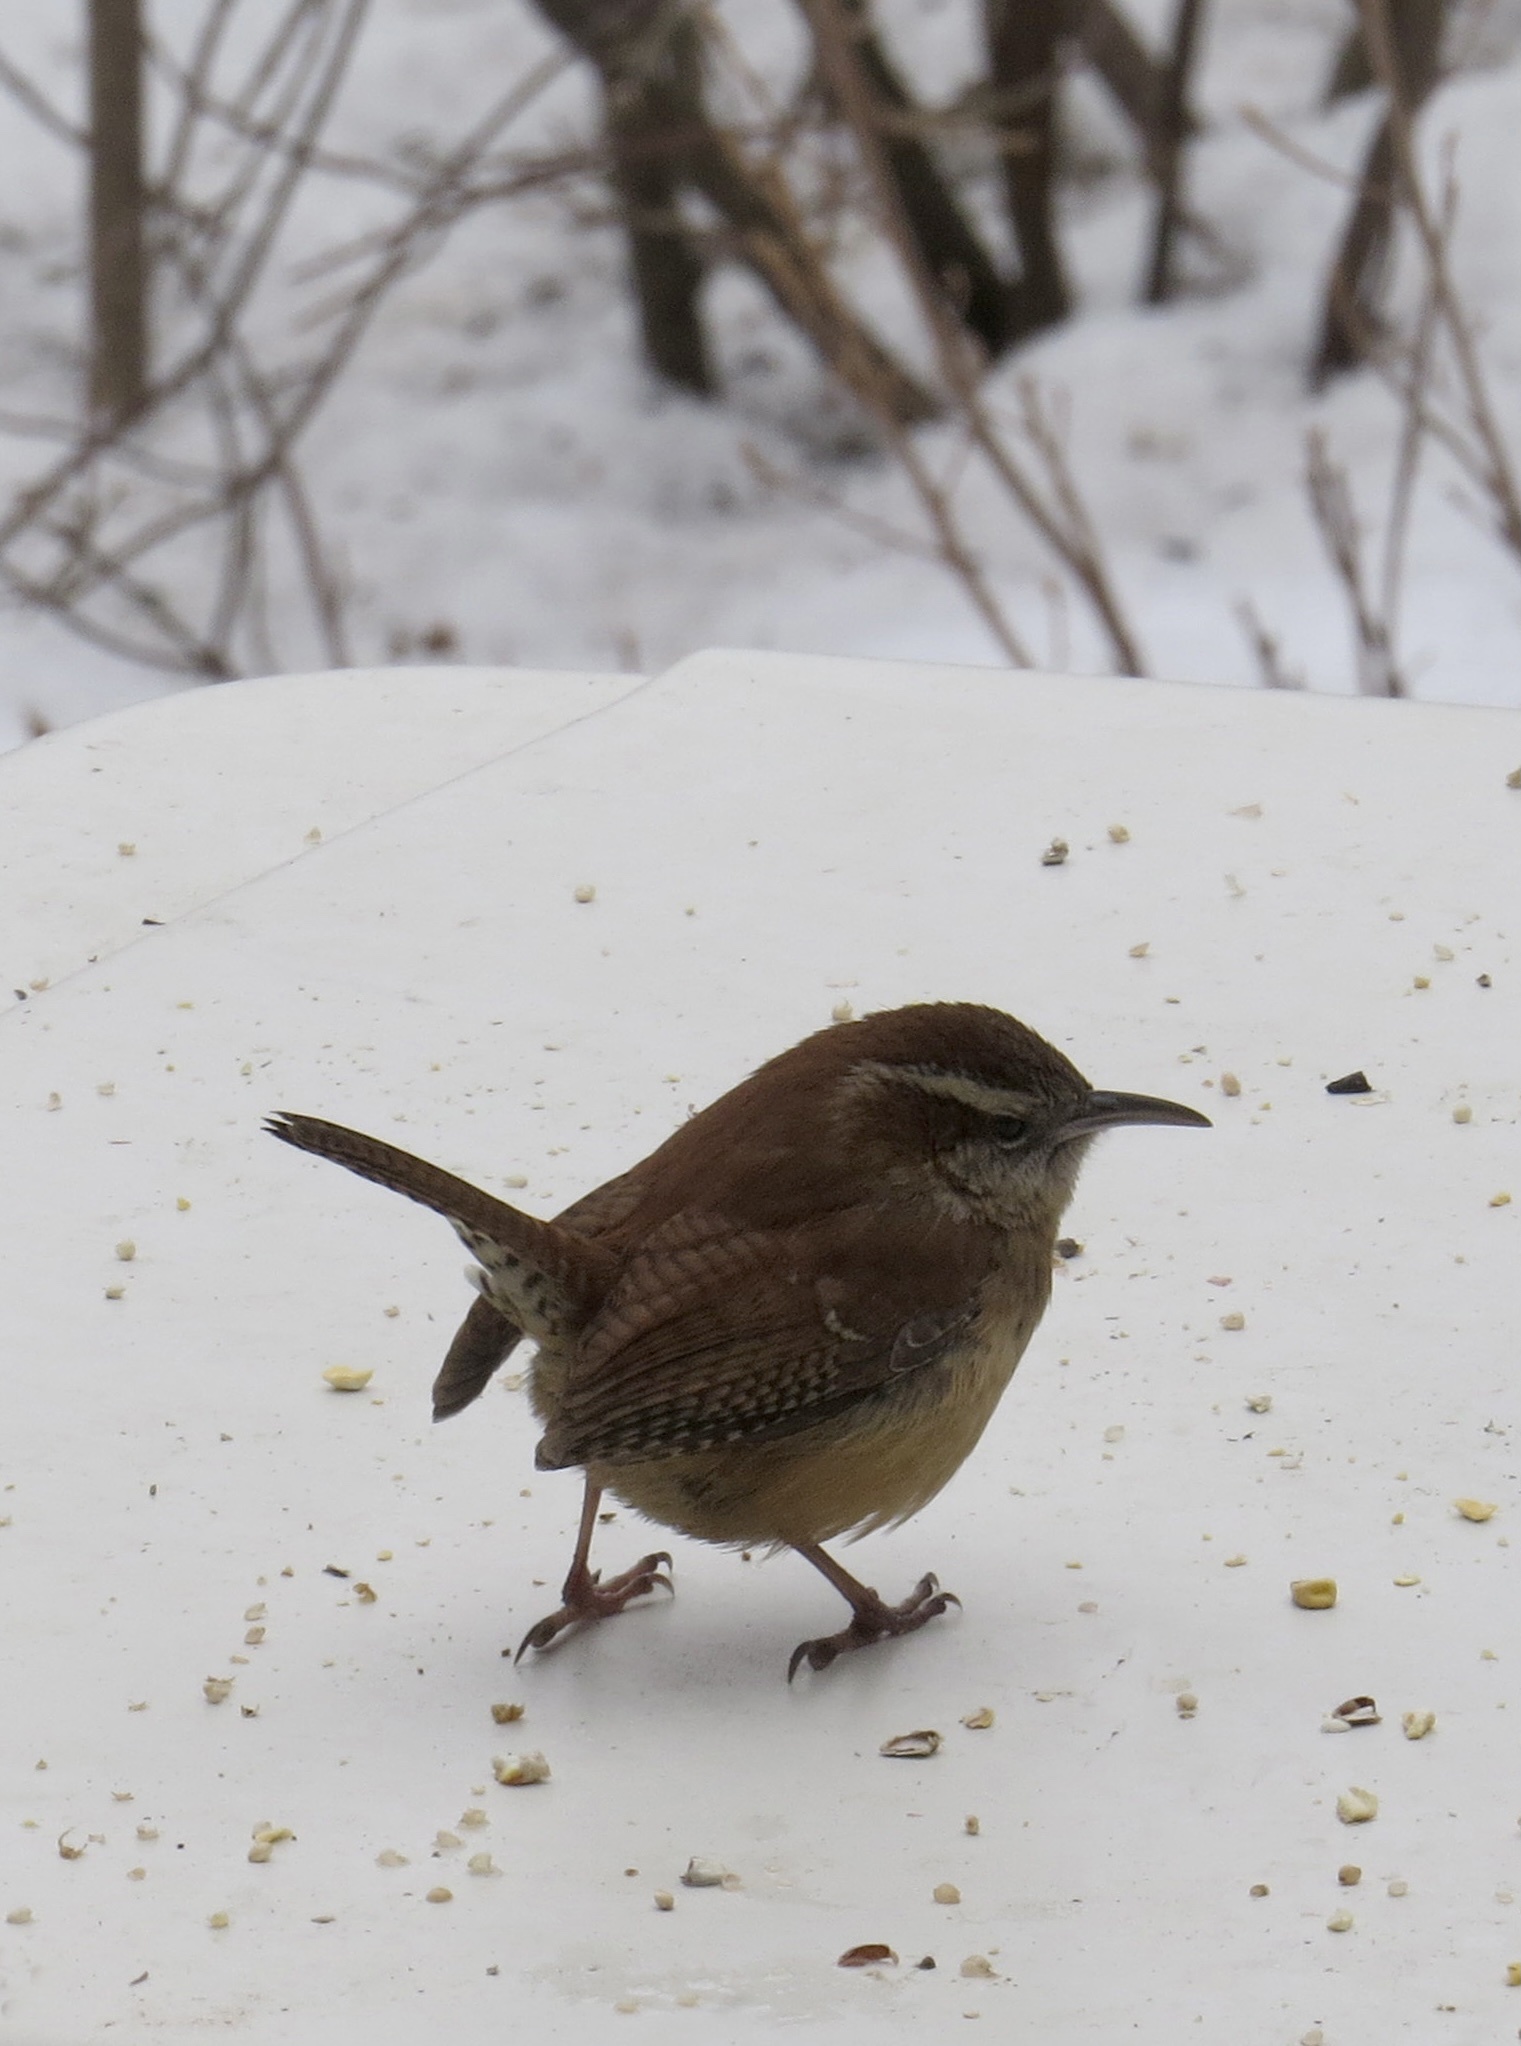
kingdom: Animalia
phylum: Chordata
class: Aves
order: Passeriformes
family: Troglodytidae
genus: Thryothorus
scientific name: Thryothorus ludovicianus
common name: Carolina wren
